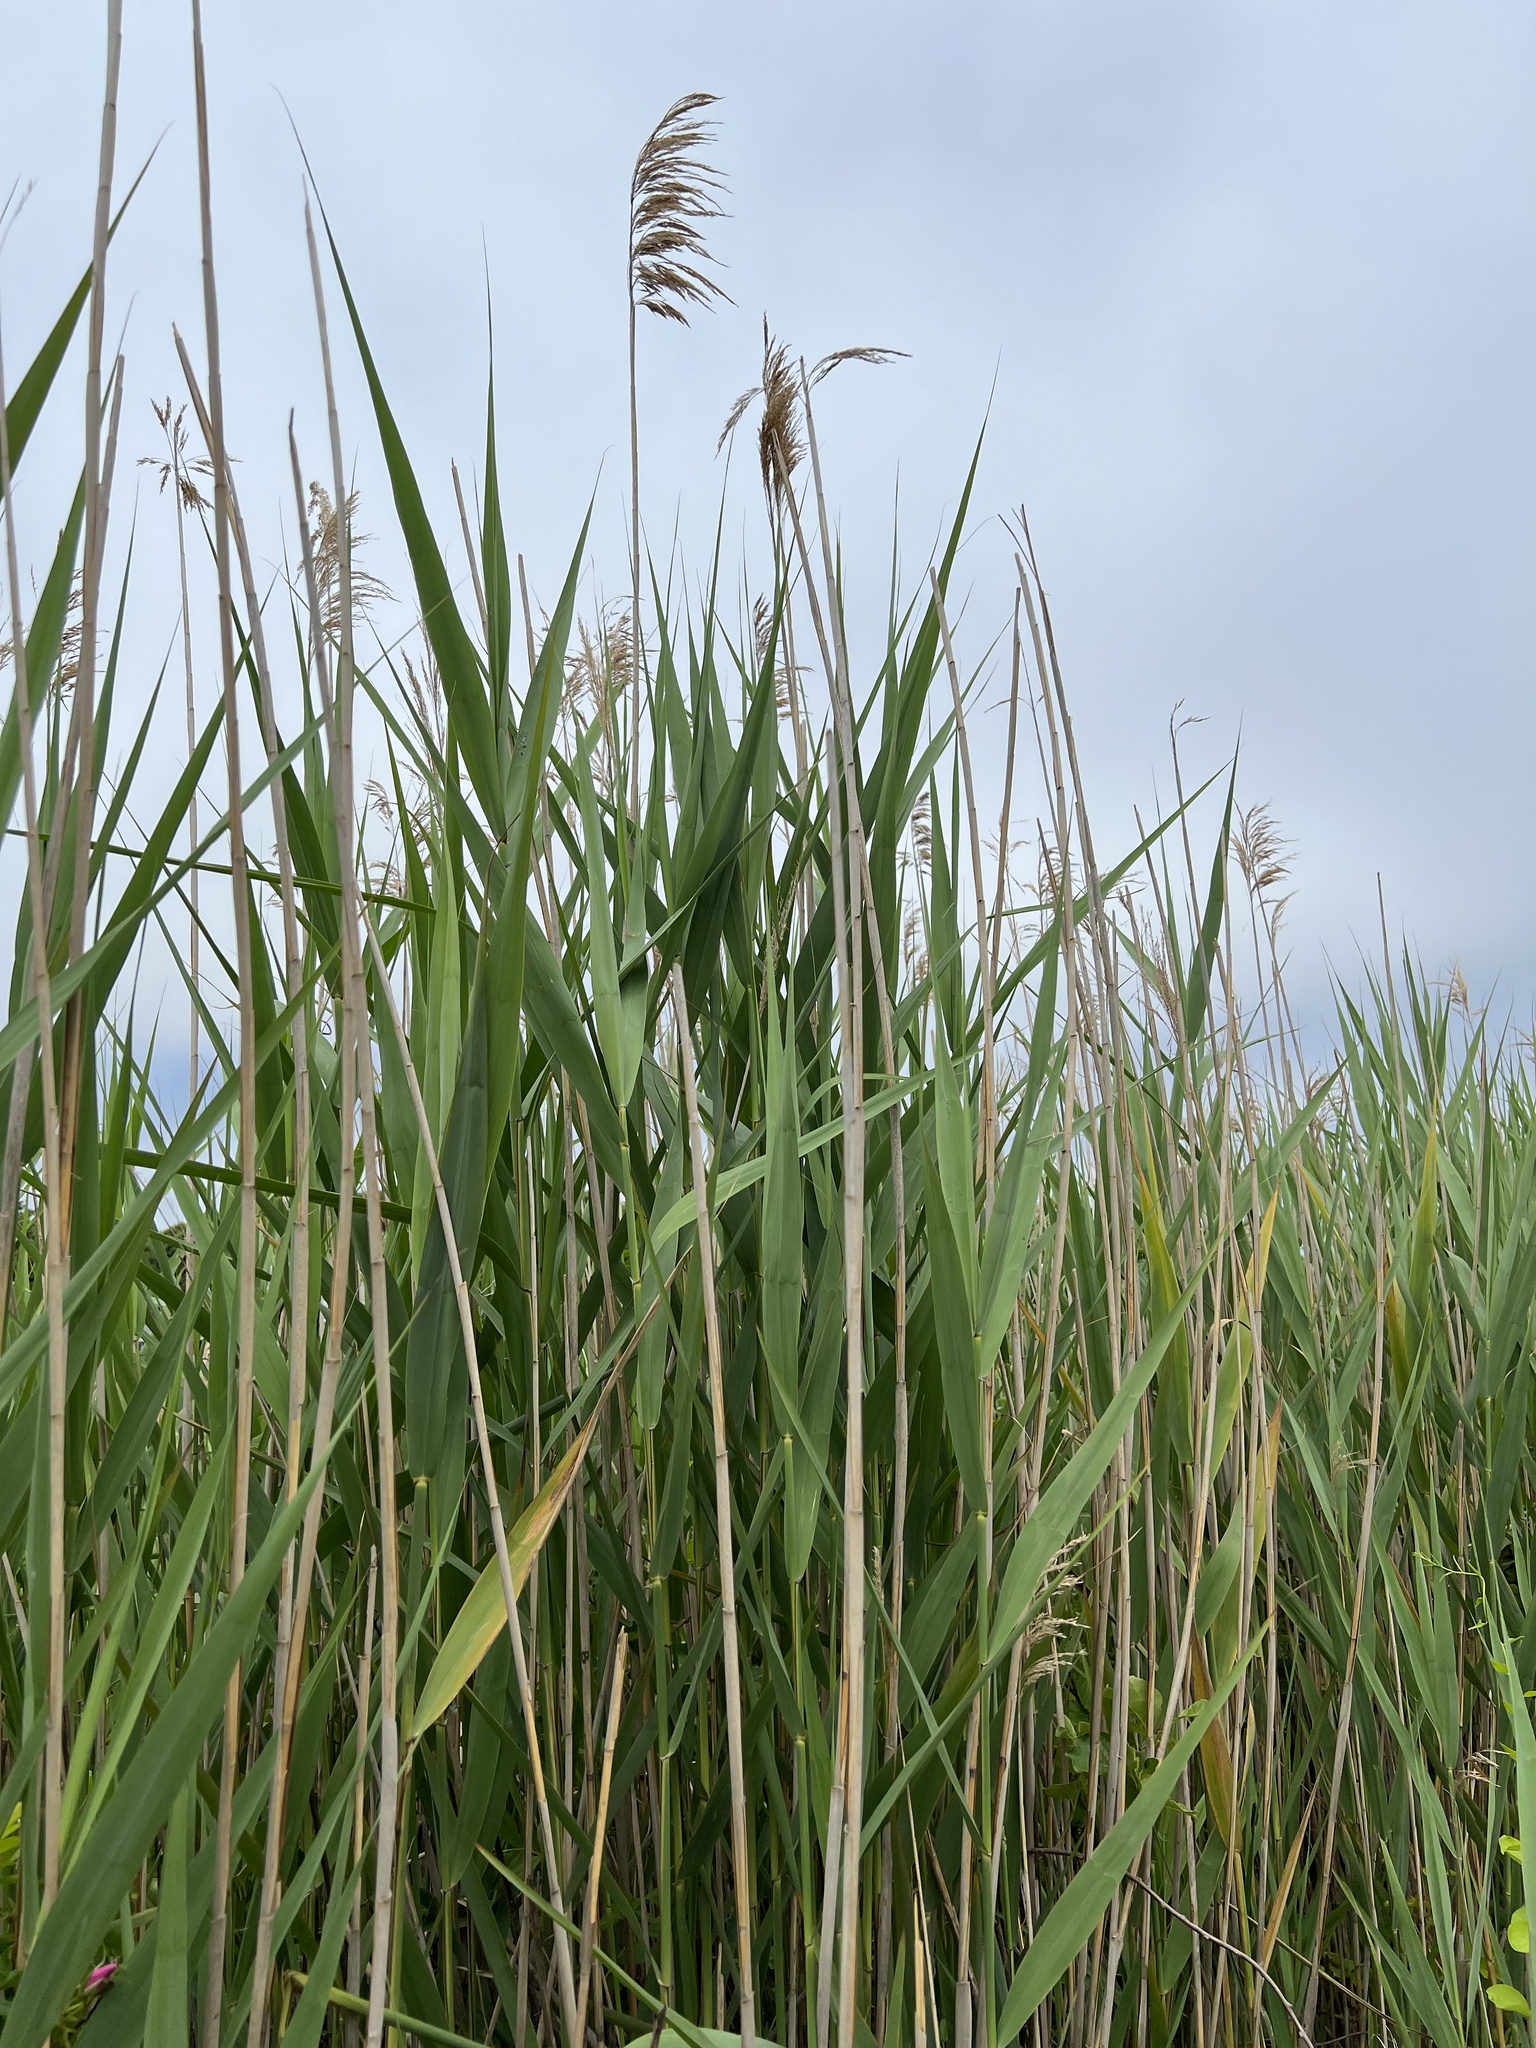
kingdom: Plantae
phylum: Tracheophyta
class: Liliopsida
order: Poales
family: Poaceae
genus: Phragmites
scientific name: Phragmites australis
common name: Common reed
